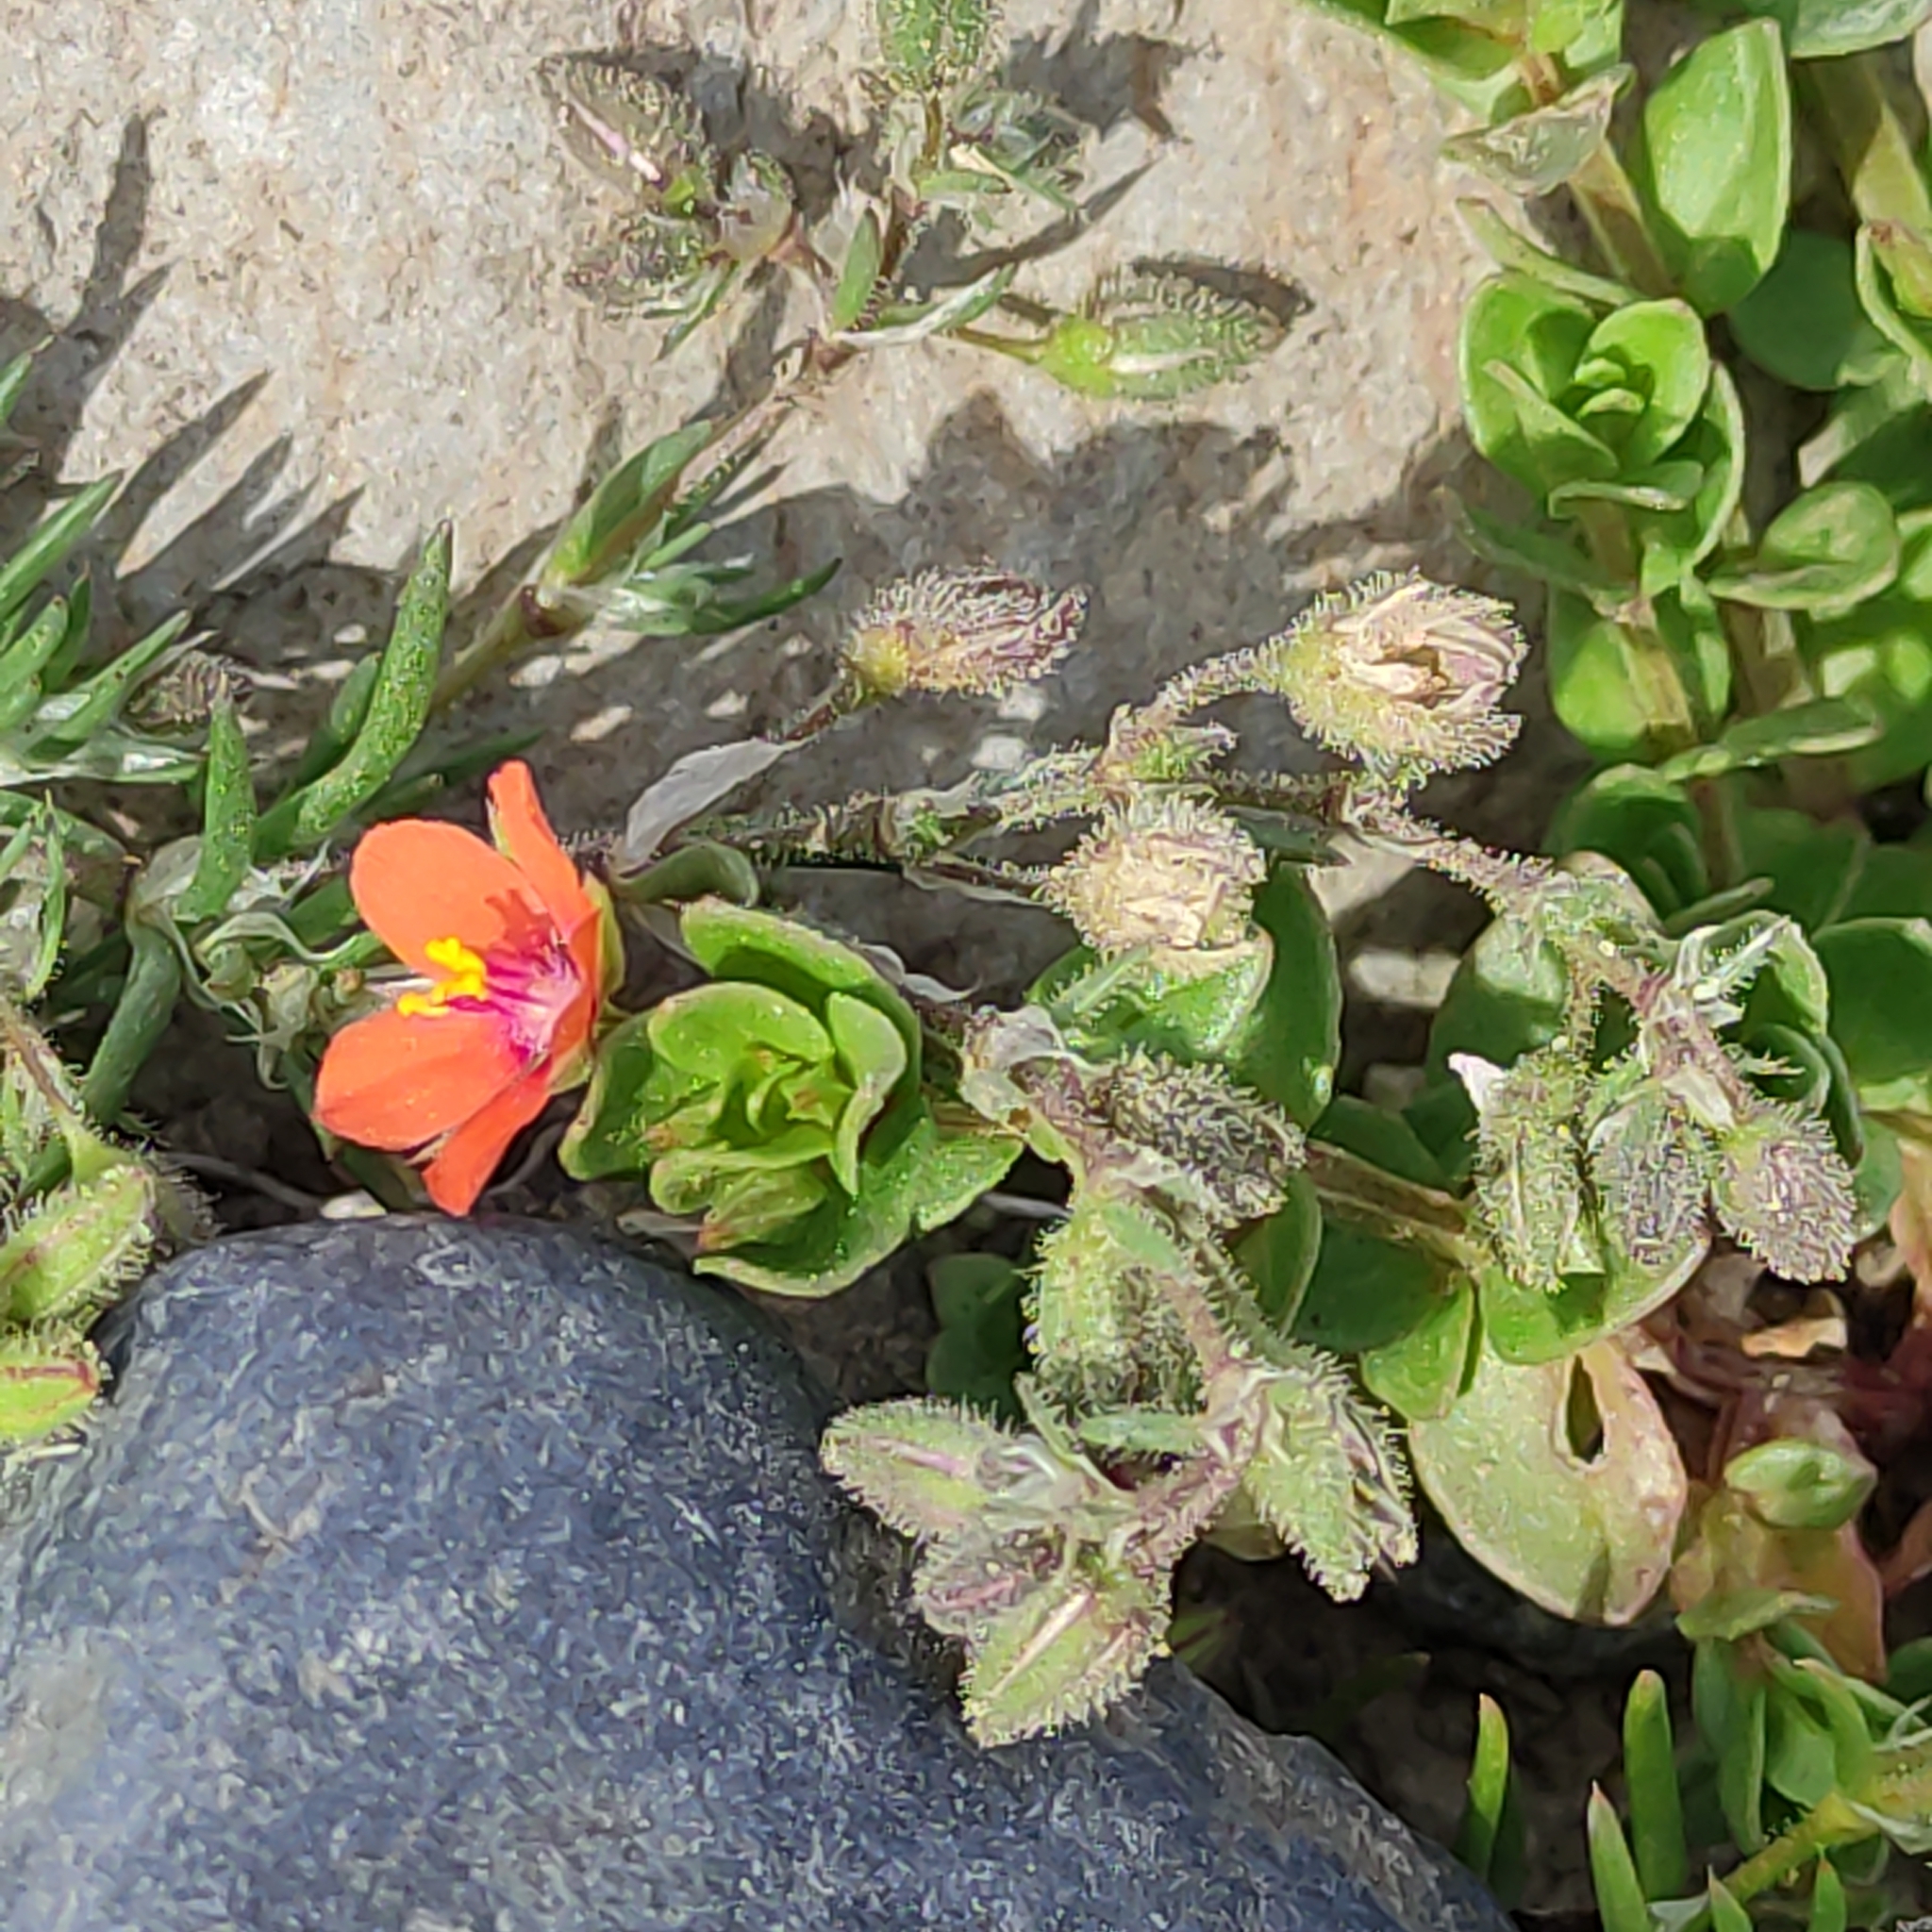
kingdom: Plantae
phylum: Tracheophyta
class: Magnoliopsida
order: Ericales
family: Primulaceae
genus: Lysimachia
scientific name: Lysimachia arvensis
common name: Scarlet pimpernel
